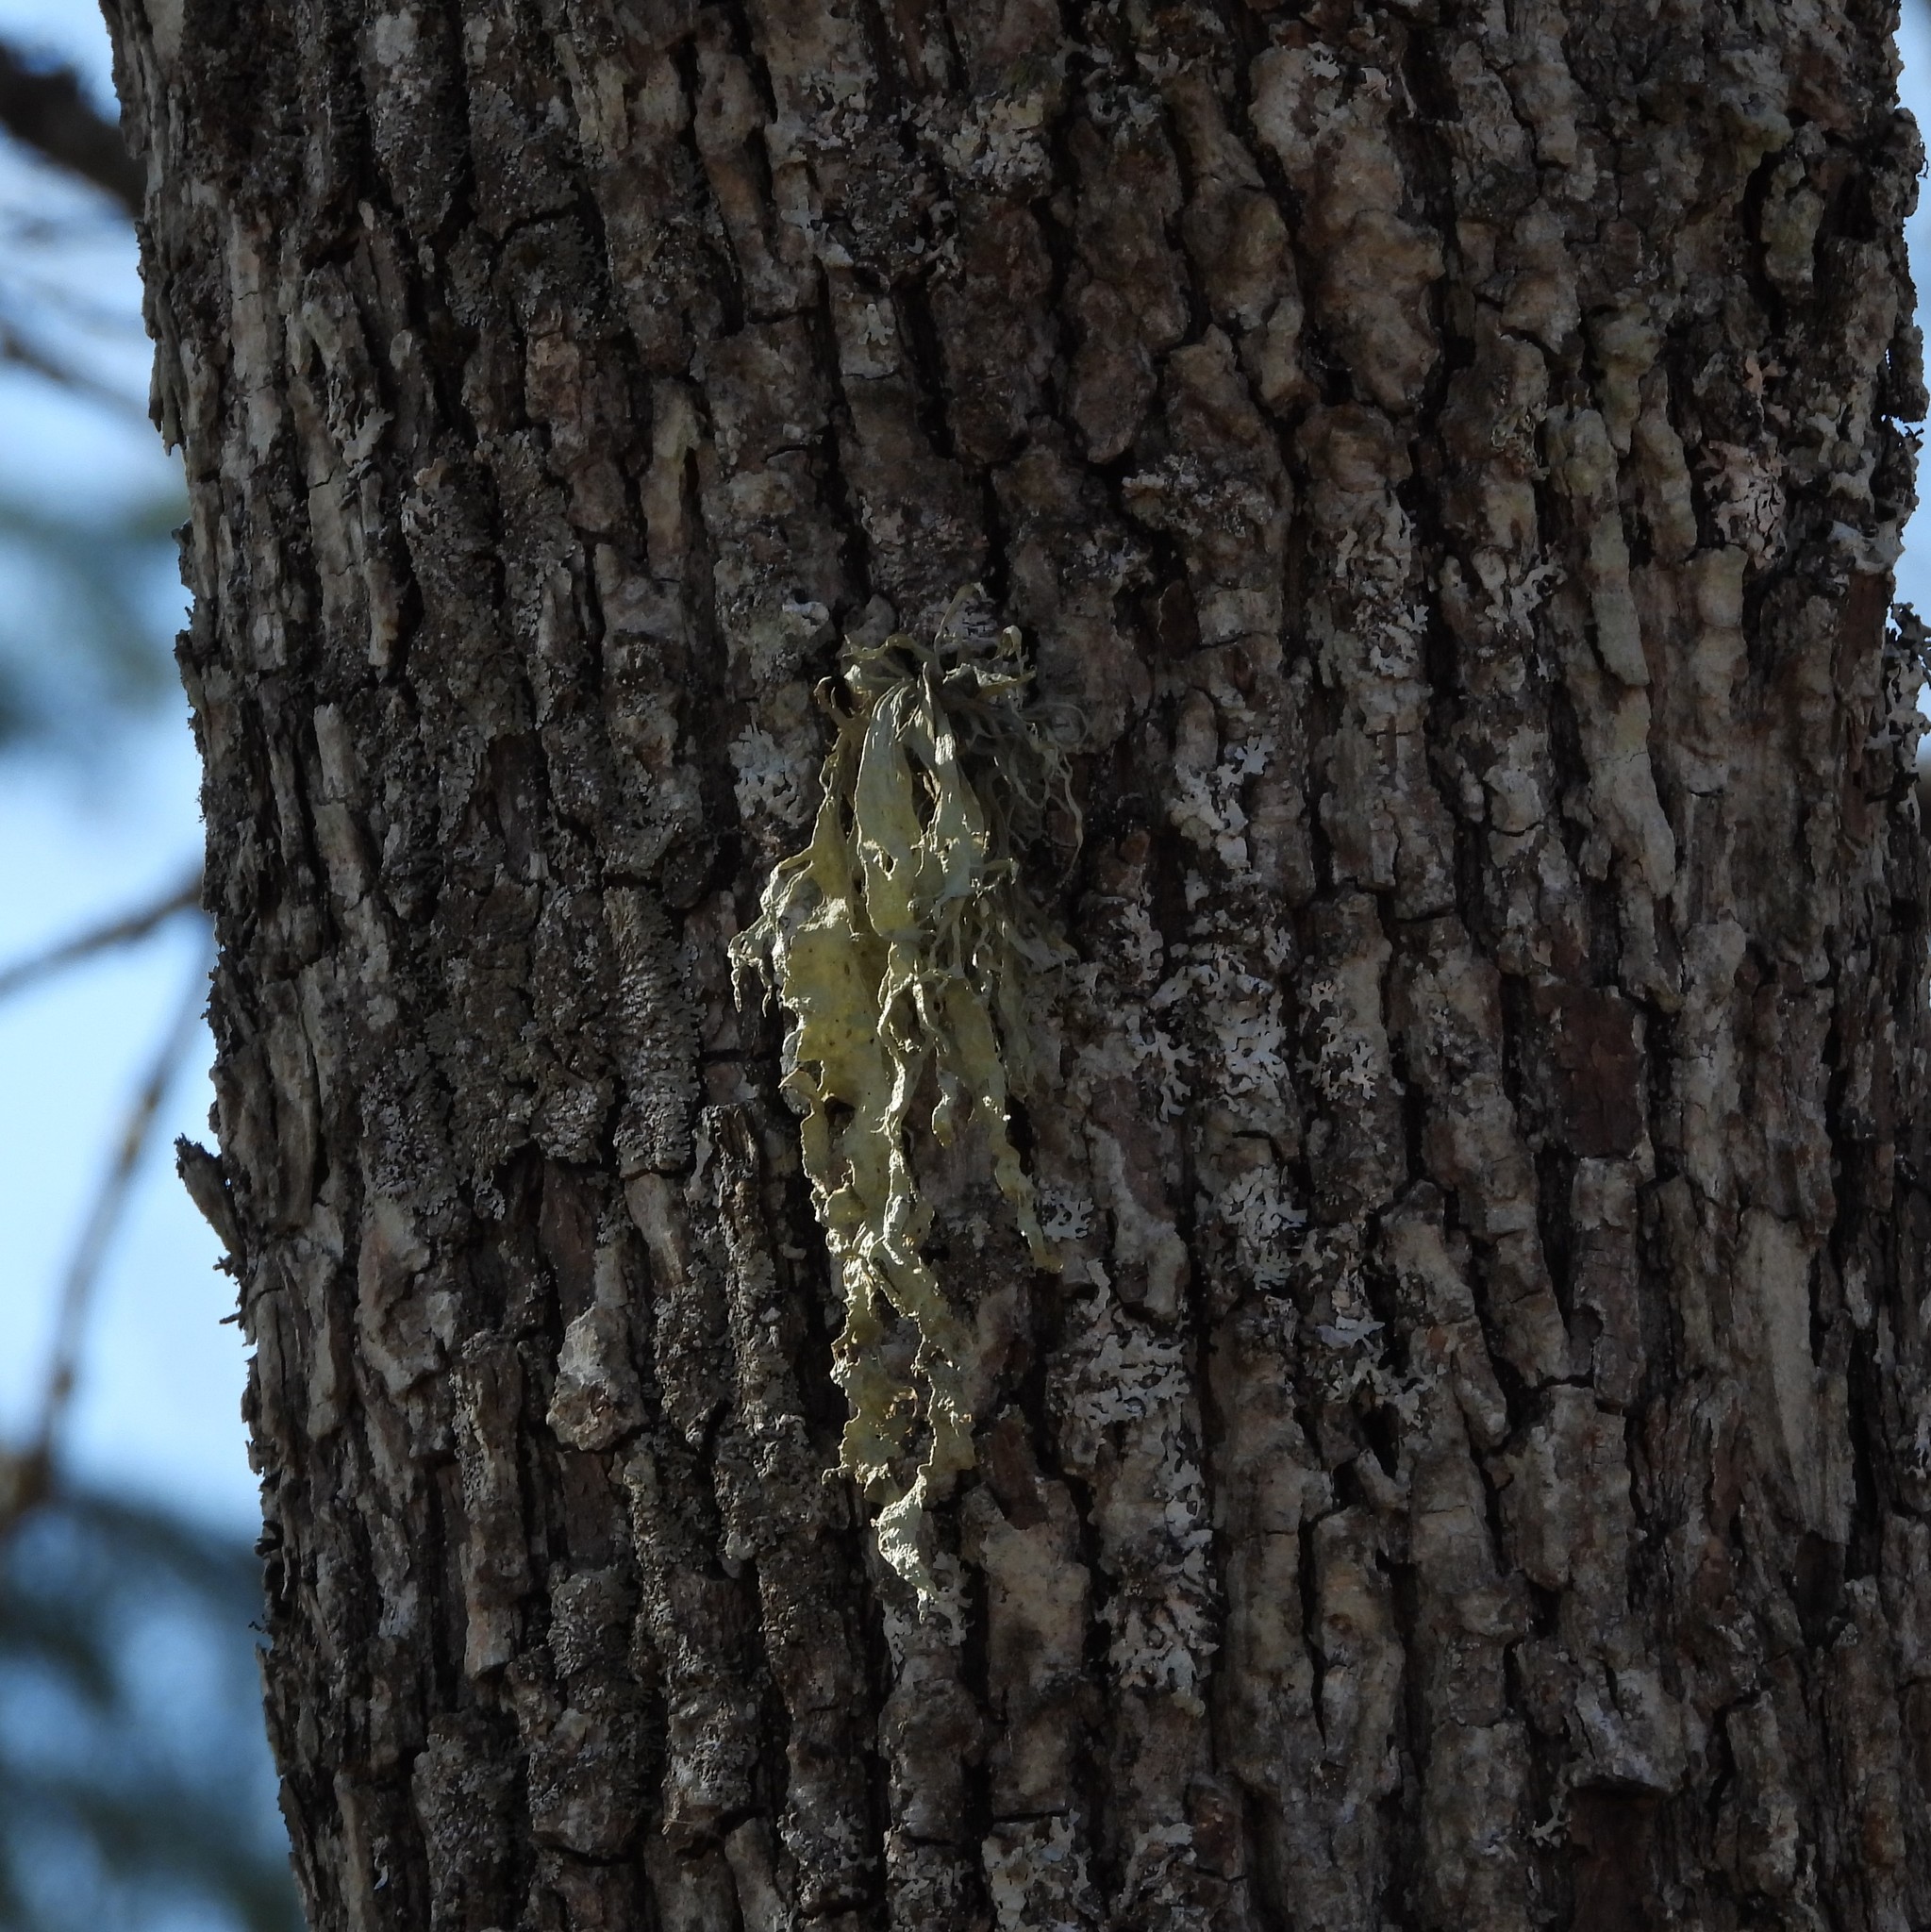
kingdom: Fungi
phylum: Ascomycota
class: Lecanoromycetes
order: Lecanorales
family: Ramalinaceae
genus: Ramalina
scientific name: Ramalina fraxinea
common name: Cartilage lichen
